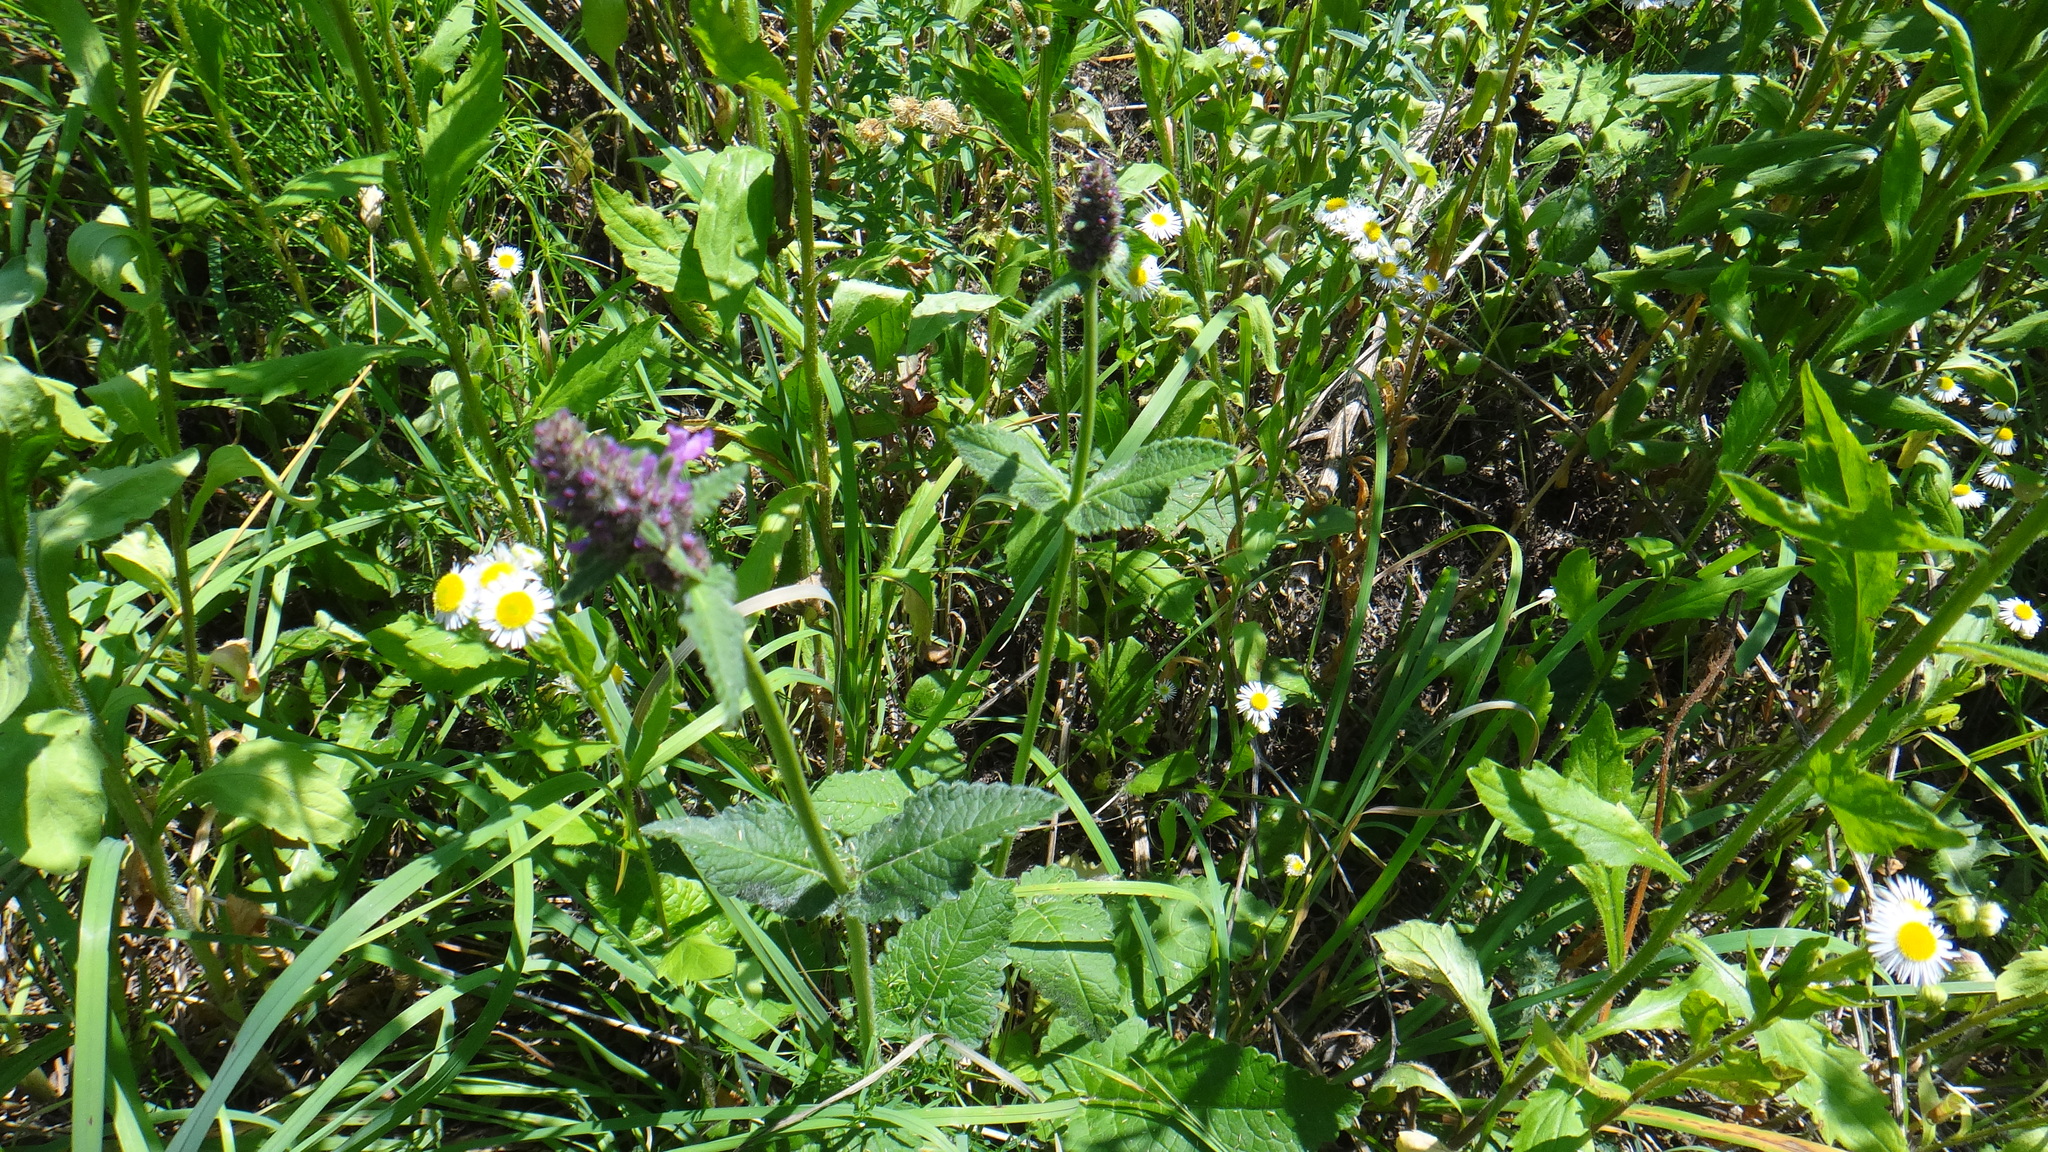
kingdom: Plantae
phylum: Tracheophyta
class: Magnoliopsida
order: Lamiales
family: Lamiaceae
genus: Betonica
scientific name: Betonica officinalis
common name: Bishop's-wort
